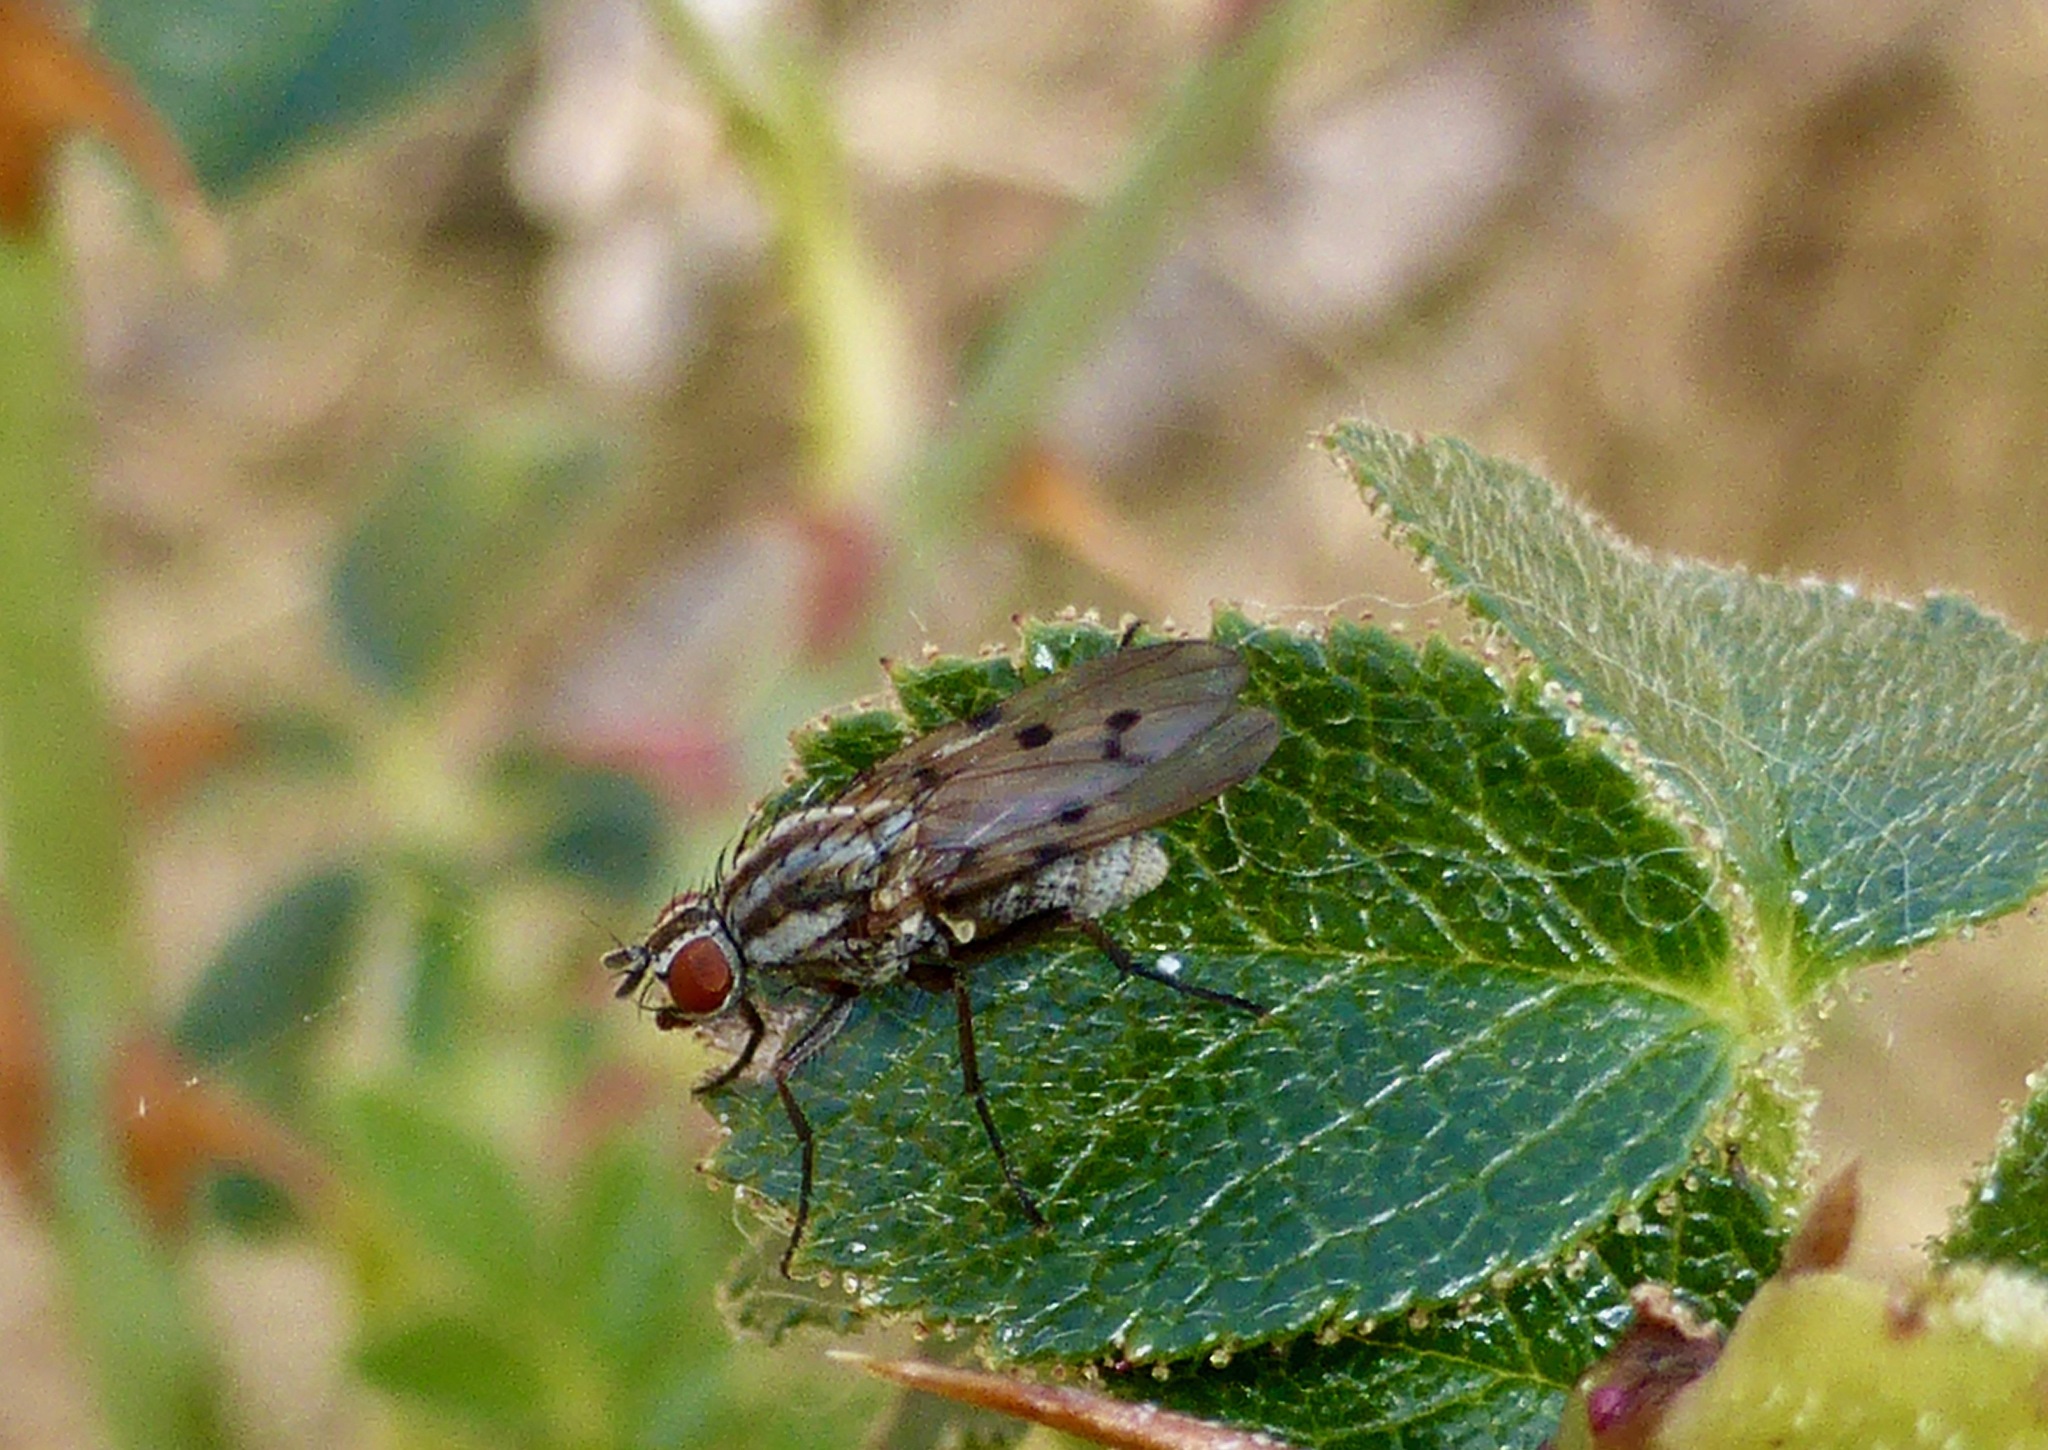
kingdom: Animalia
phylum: Arthropoda
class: Insecta
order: Diptera
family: Anthomyiidae
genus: Anthomyia
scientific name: Anthomyia punctipennis
